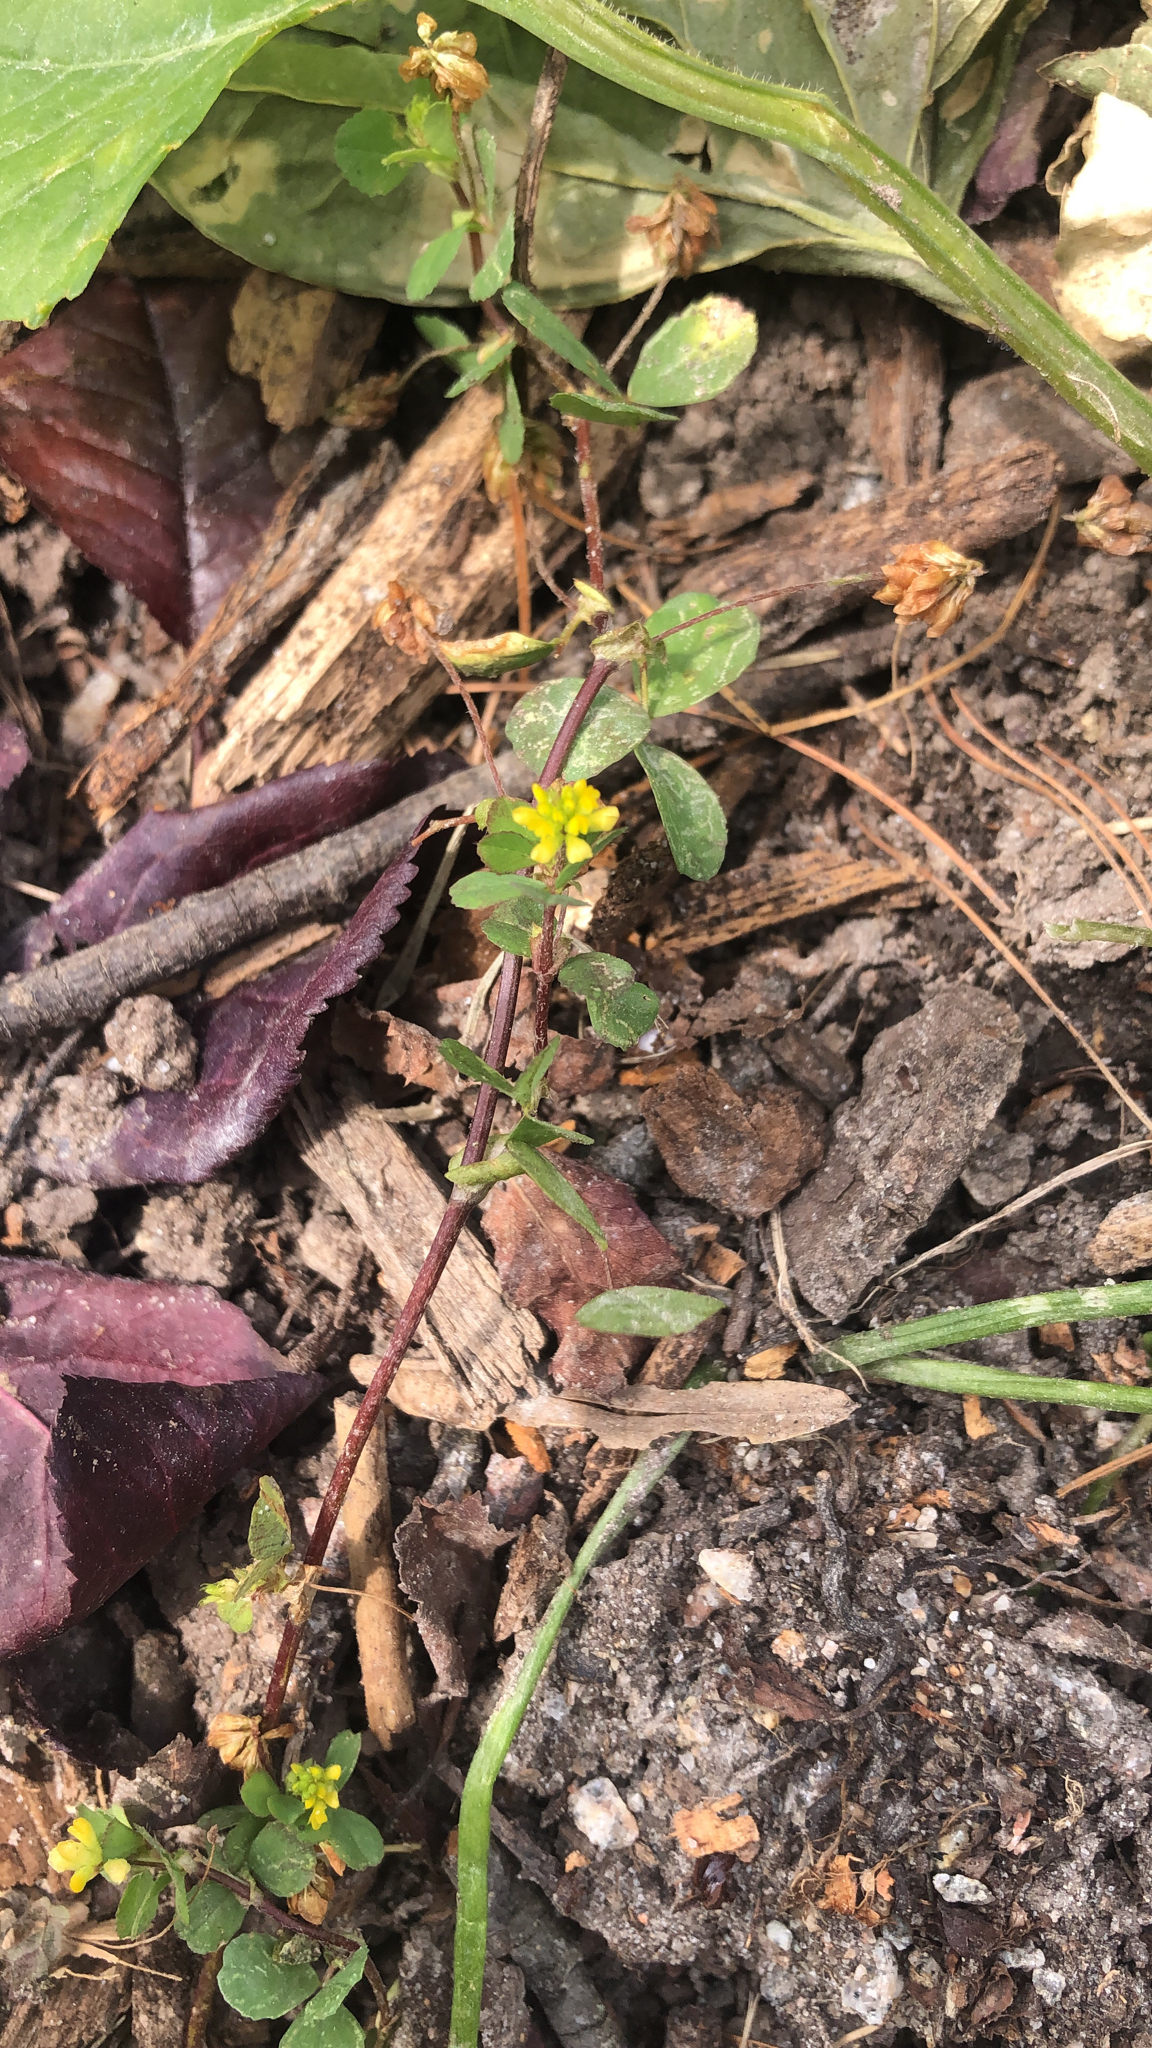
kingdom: Plantae
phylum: Tracheophyta
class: Magnoliopsida
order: Fabales
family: Fabaceae
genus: Trifolium
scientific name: Trifolium dubium
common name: Suckling clover
